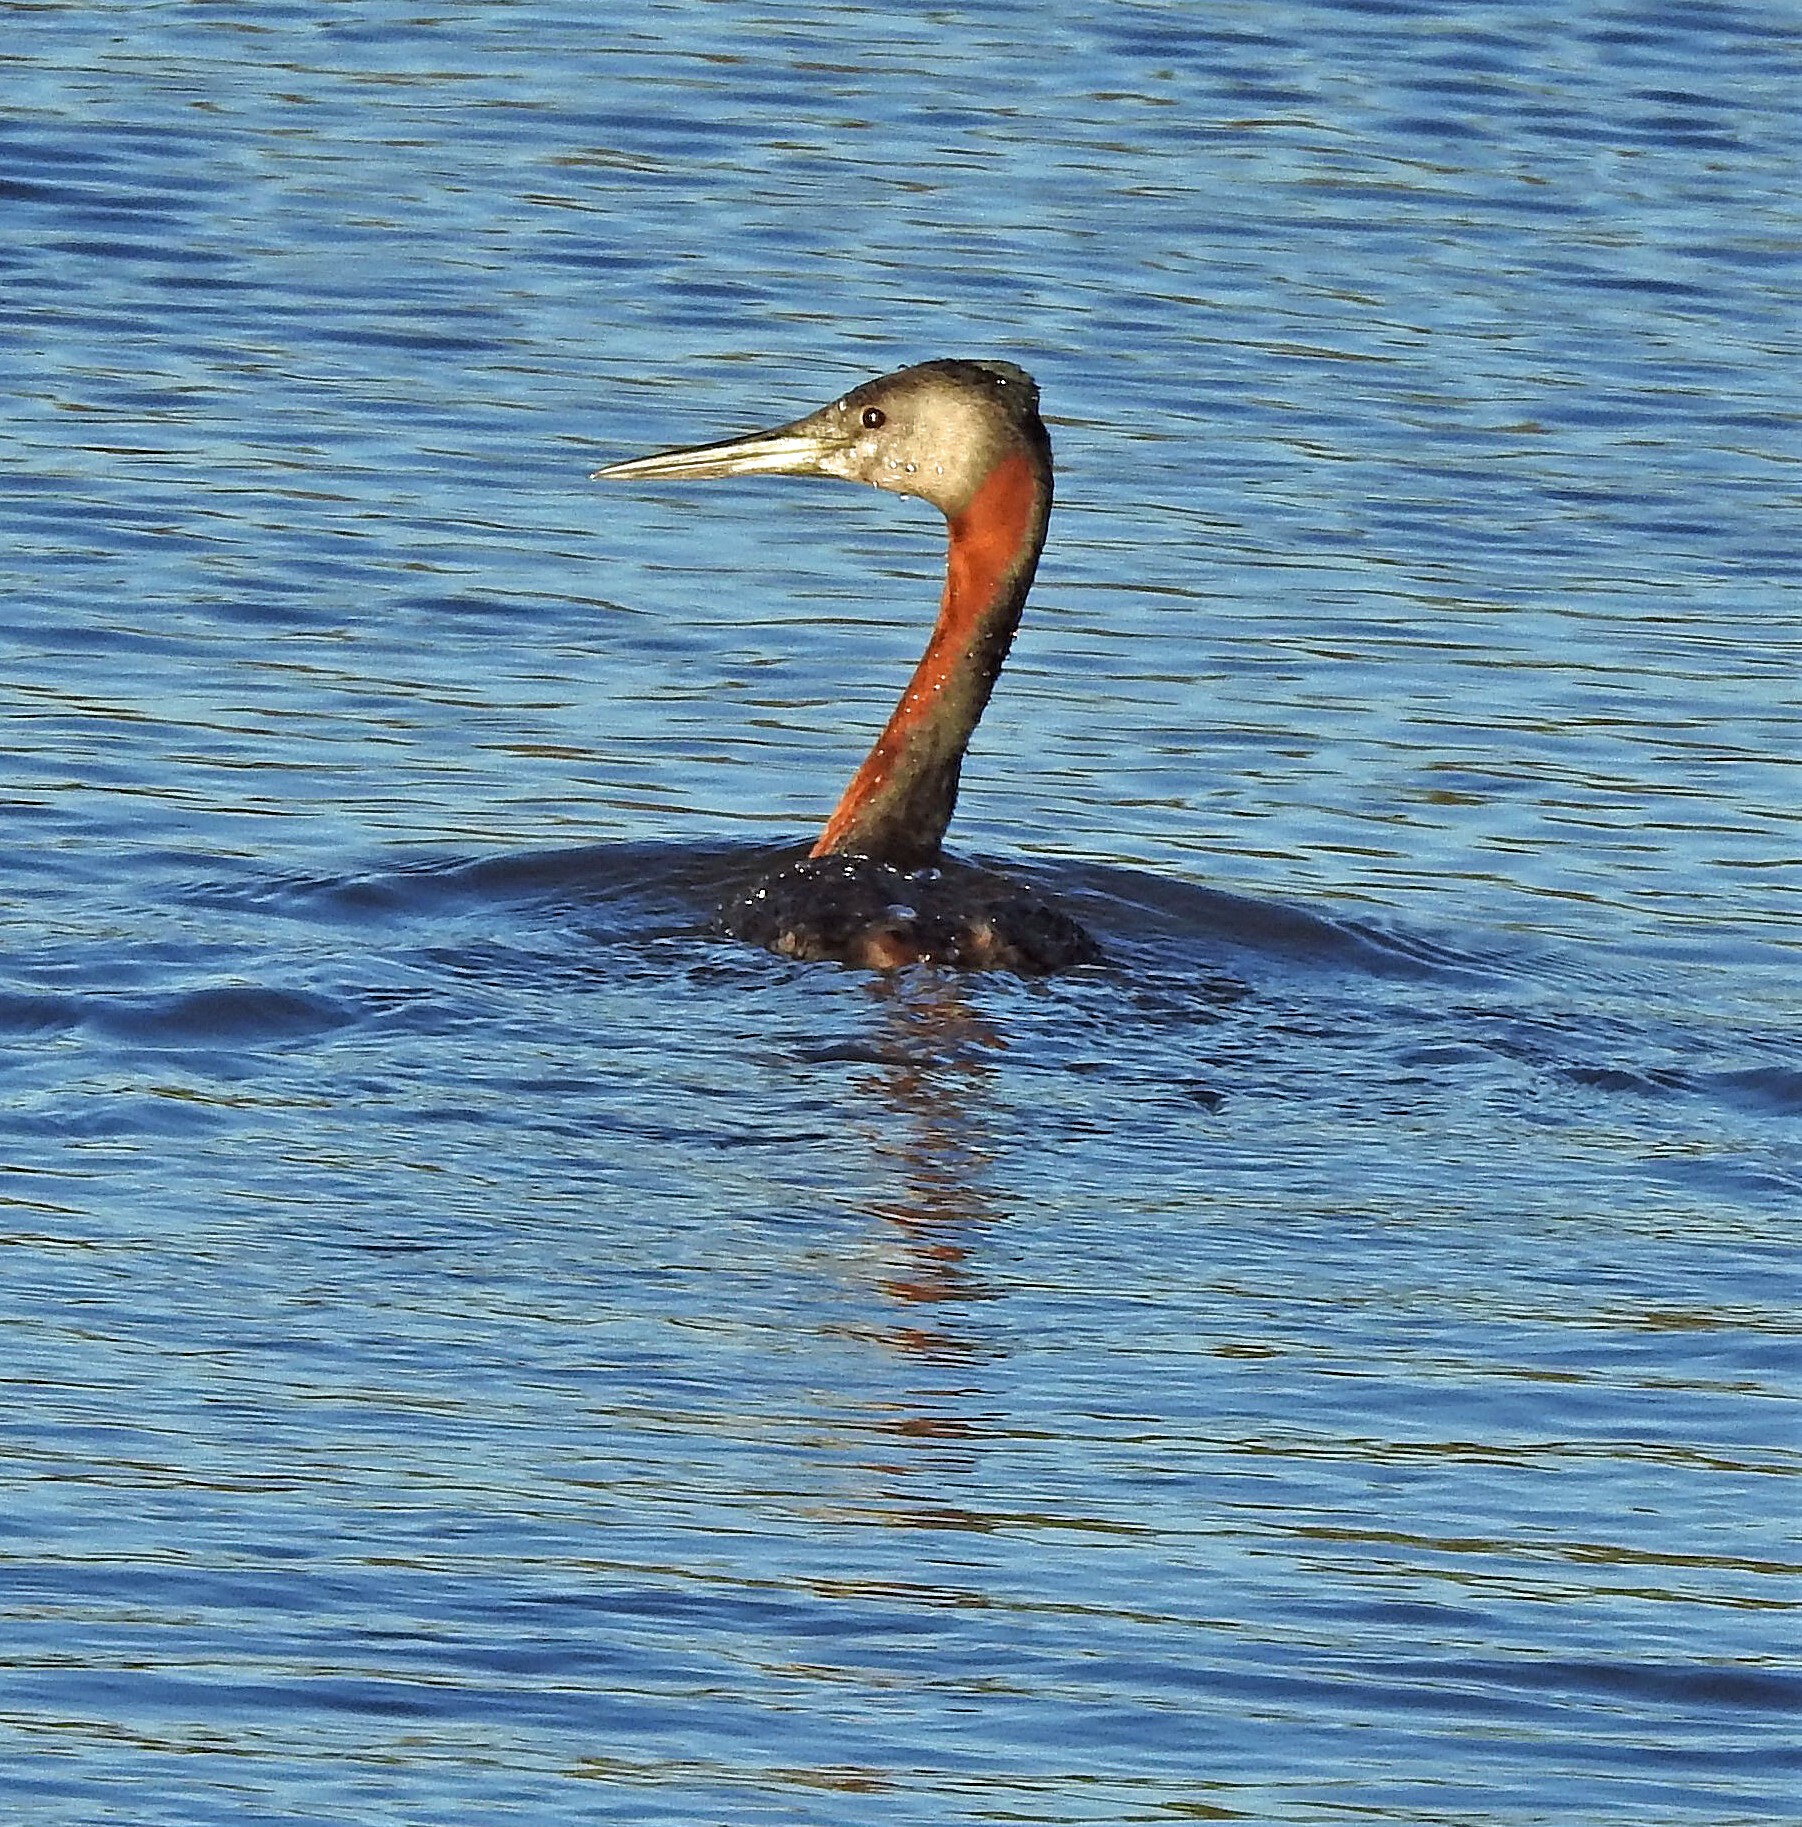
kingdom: Animalia
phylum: Chordata
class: Aves
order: Podicipediformes
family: Podicipedidae
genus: Podiceps
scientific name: Podiceps major
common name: Great grebe
